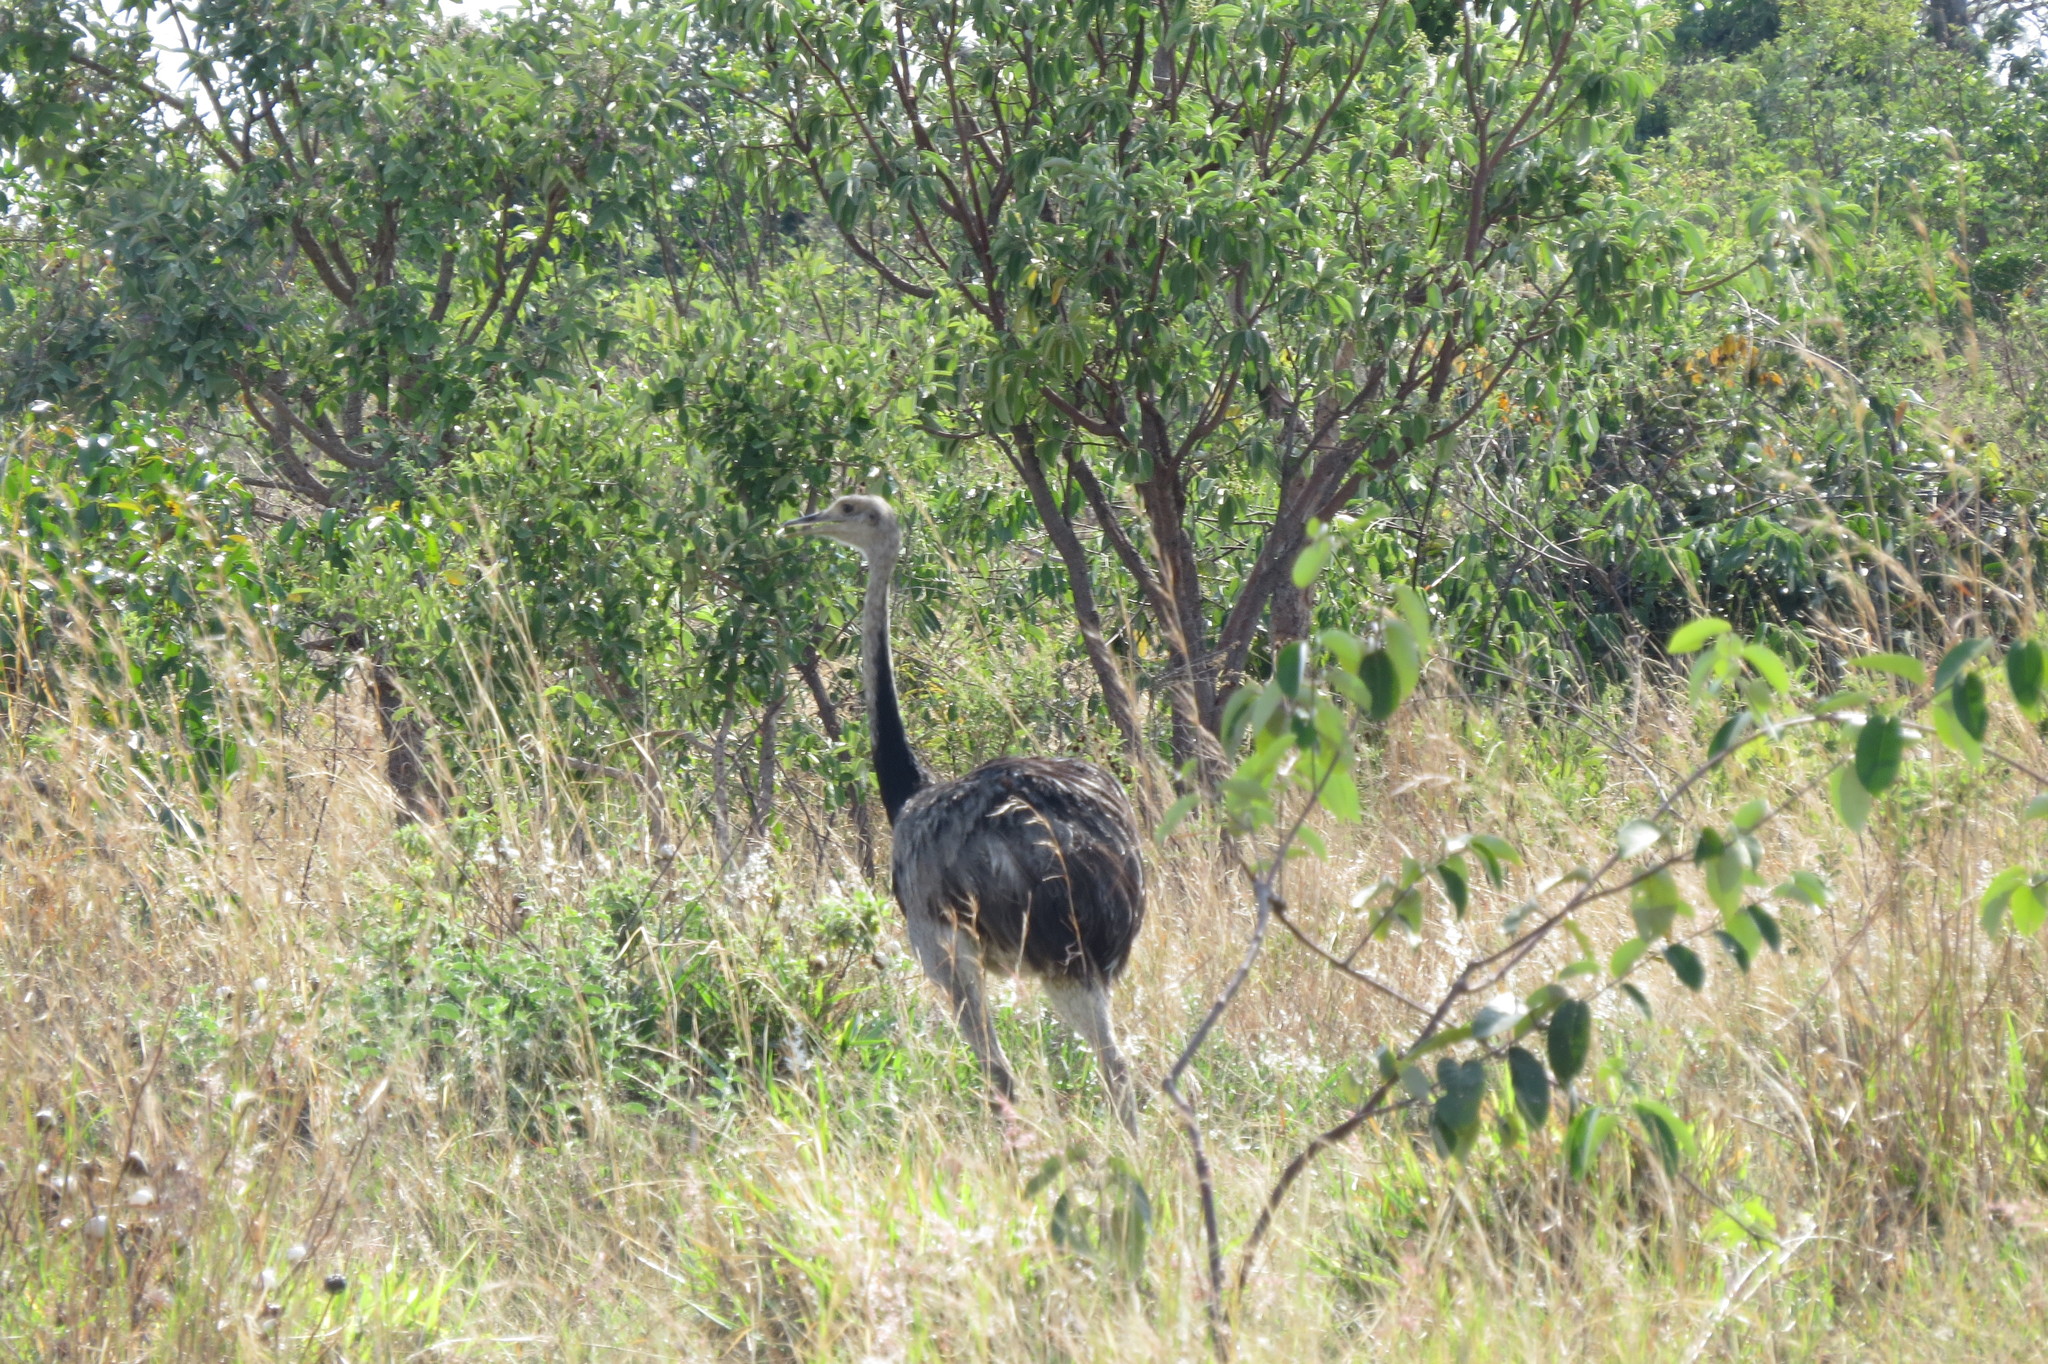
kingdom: Animalia
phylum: Chordata
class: Aves
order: Rheiformes
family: Rheidae
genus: Rhea
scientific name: Rhea americana
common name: Greater rhea
